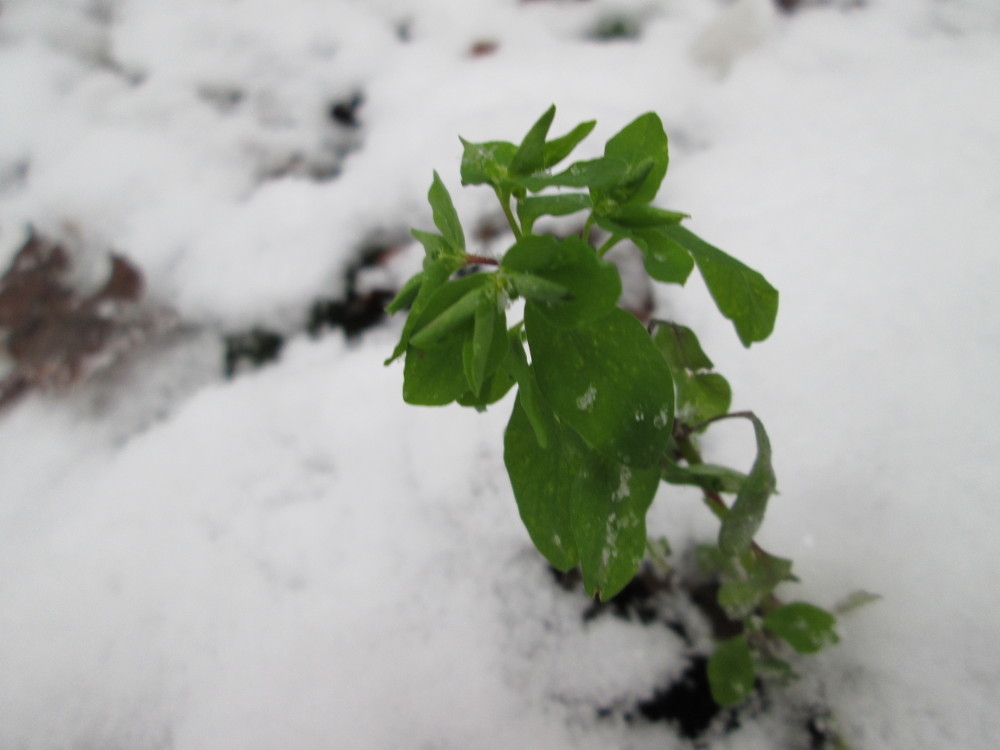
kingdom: Plantae
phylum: Tracheophyta
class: Magnoliopsida
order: Malpighiales
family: Euphorbiaceae
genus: Euphorbia
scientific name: Euphorbia peplus
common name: Petty spurge
